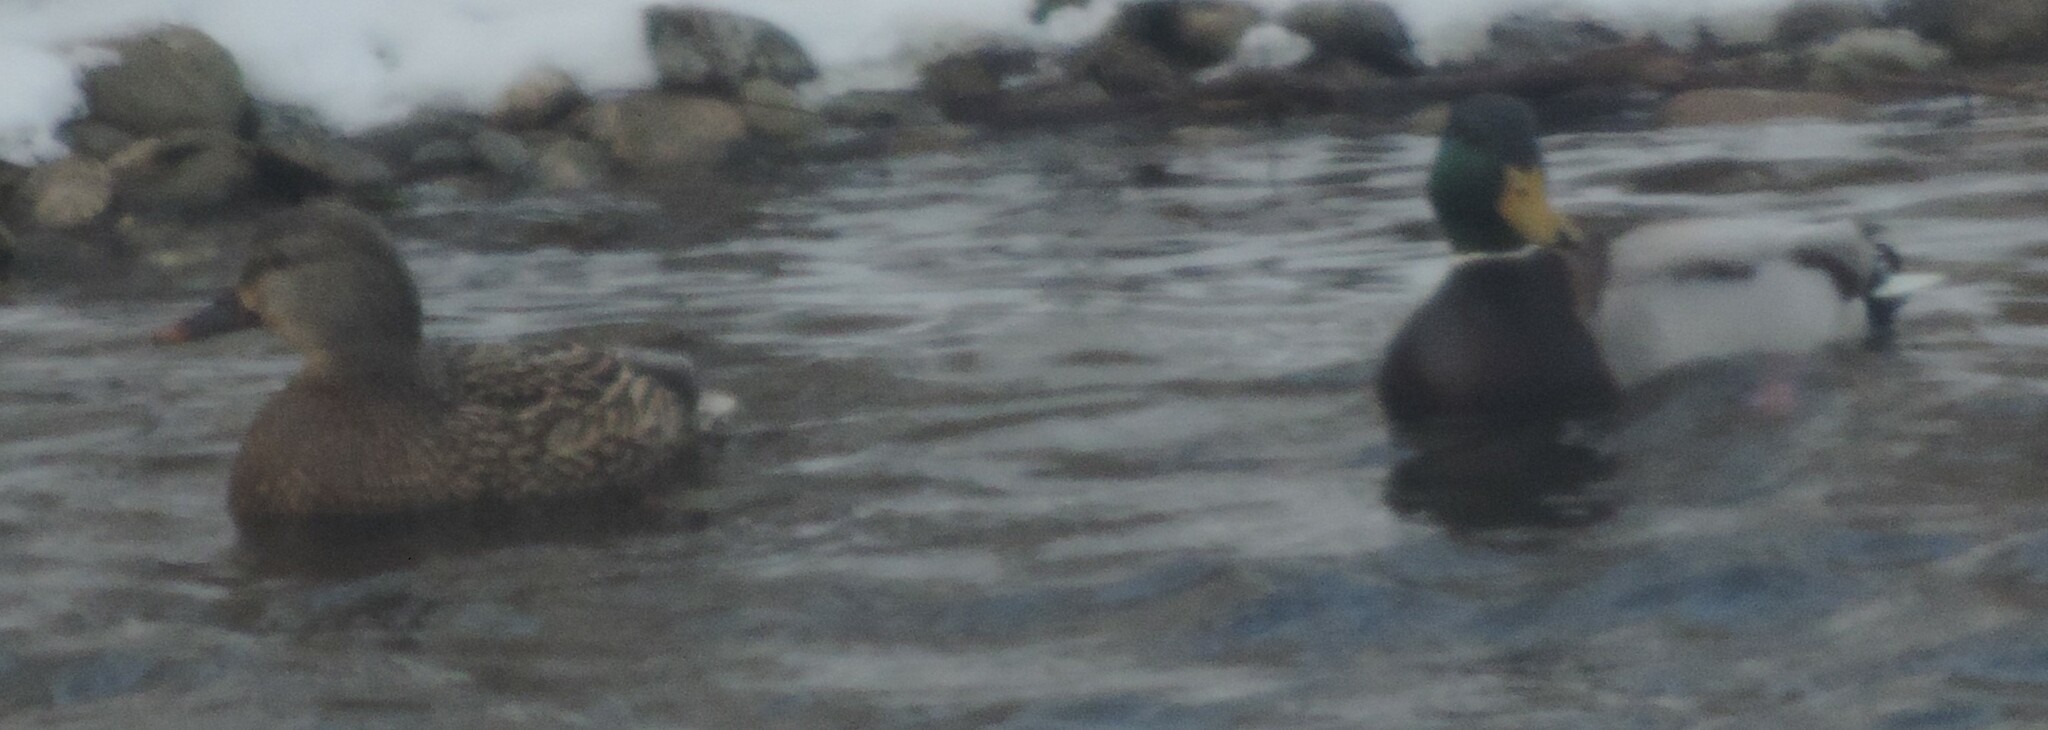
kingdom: Animalia
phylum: Chordata
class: Aves
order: Anseriformes
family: Anatidae
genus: Anas
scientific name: Anas platyrhynchos
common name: Mallard
